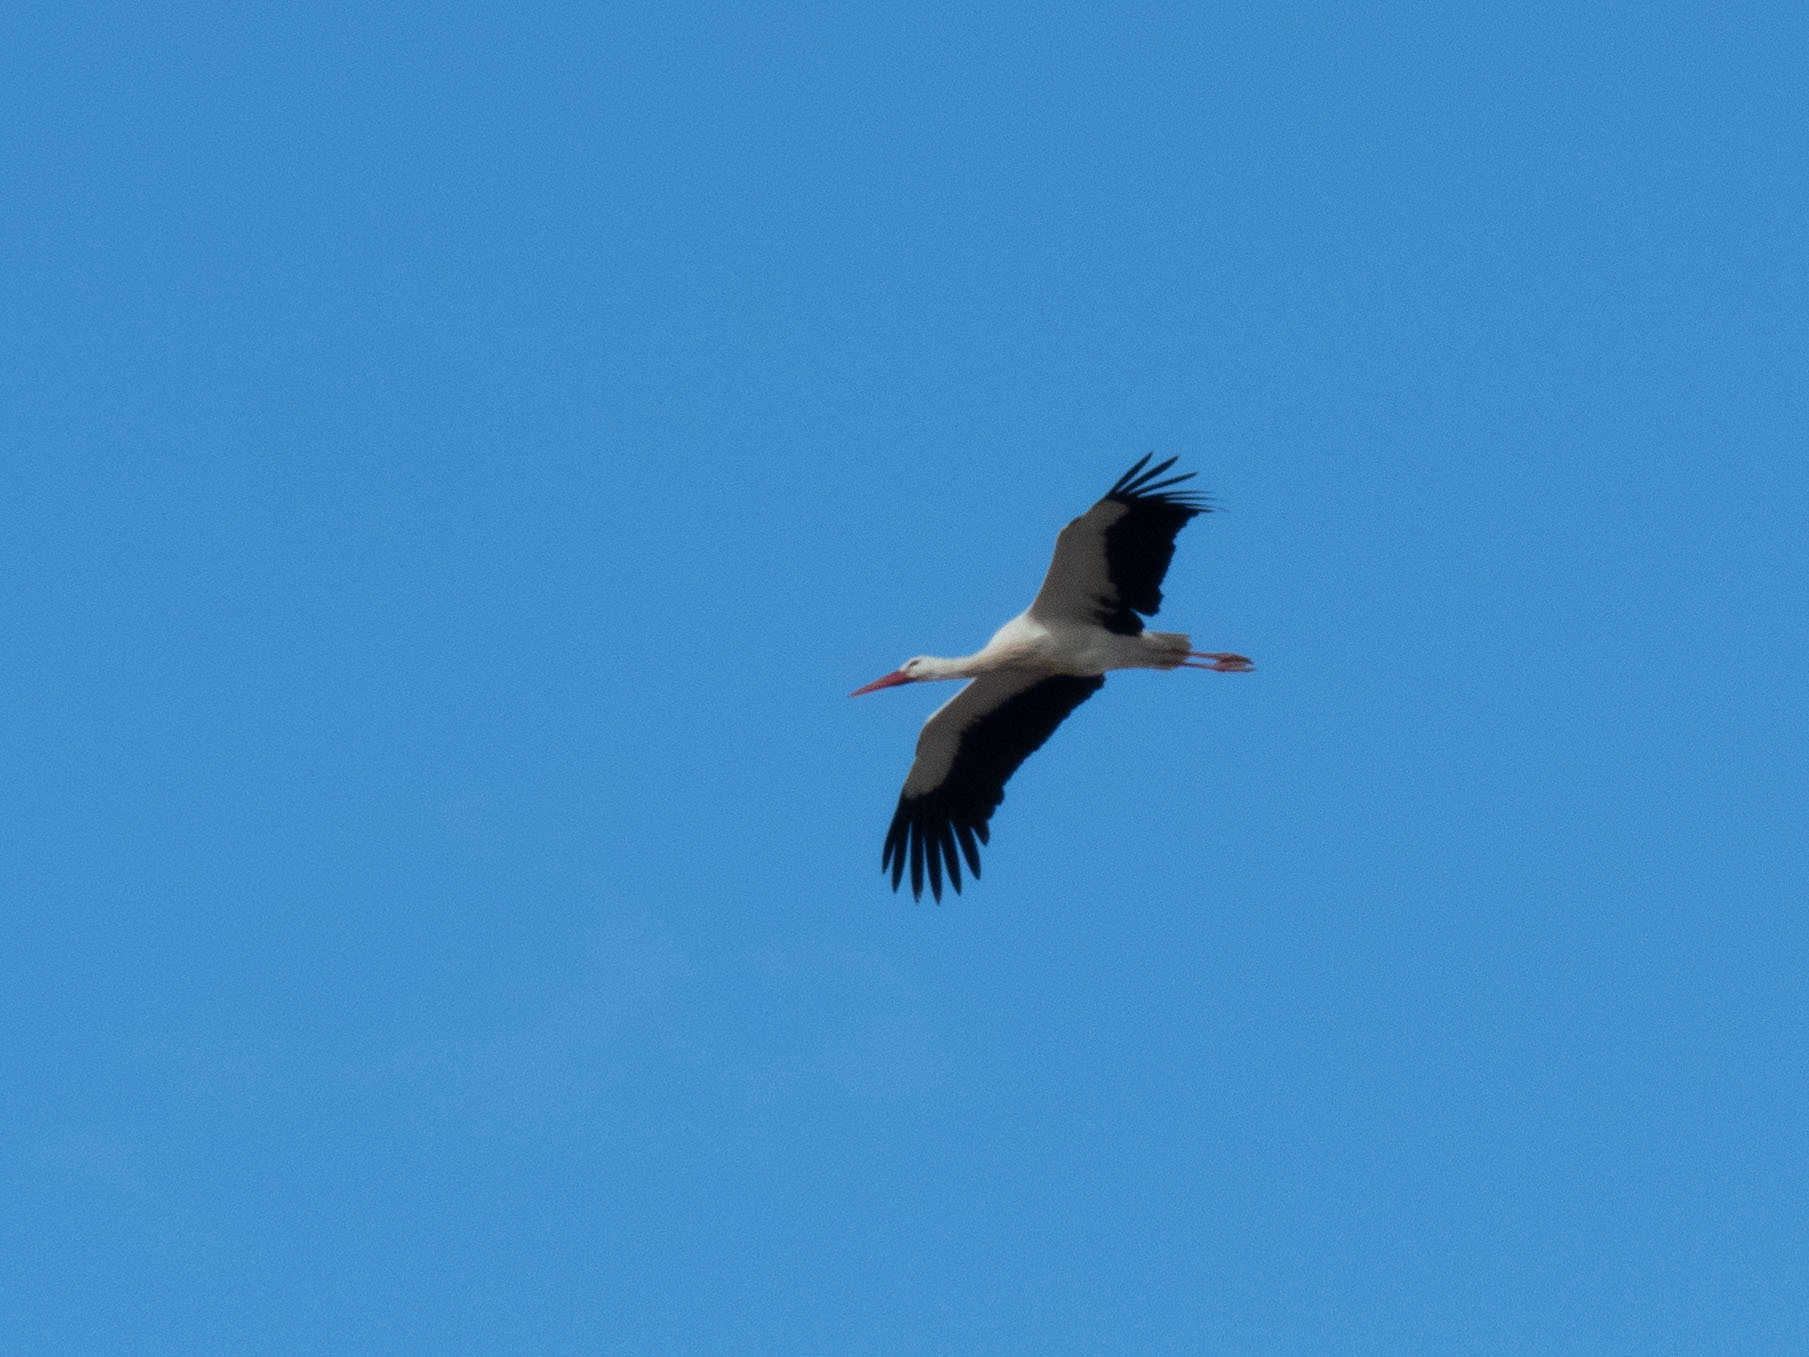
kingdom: Animalia
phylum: Chordata
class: Aves
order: Ciconiiformes
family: Ciconiidae
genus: Ciconia
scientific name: Ciconia ciconia
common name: White stork
